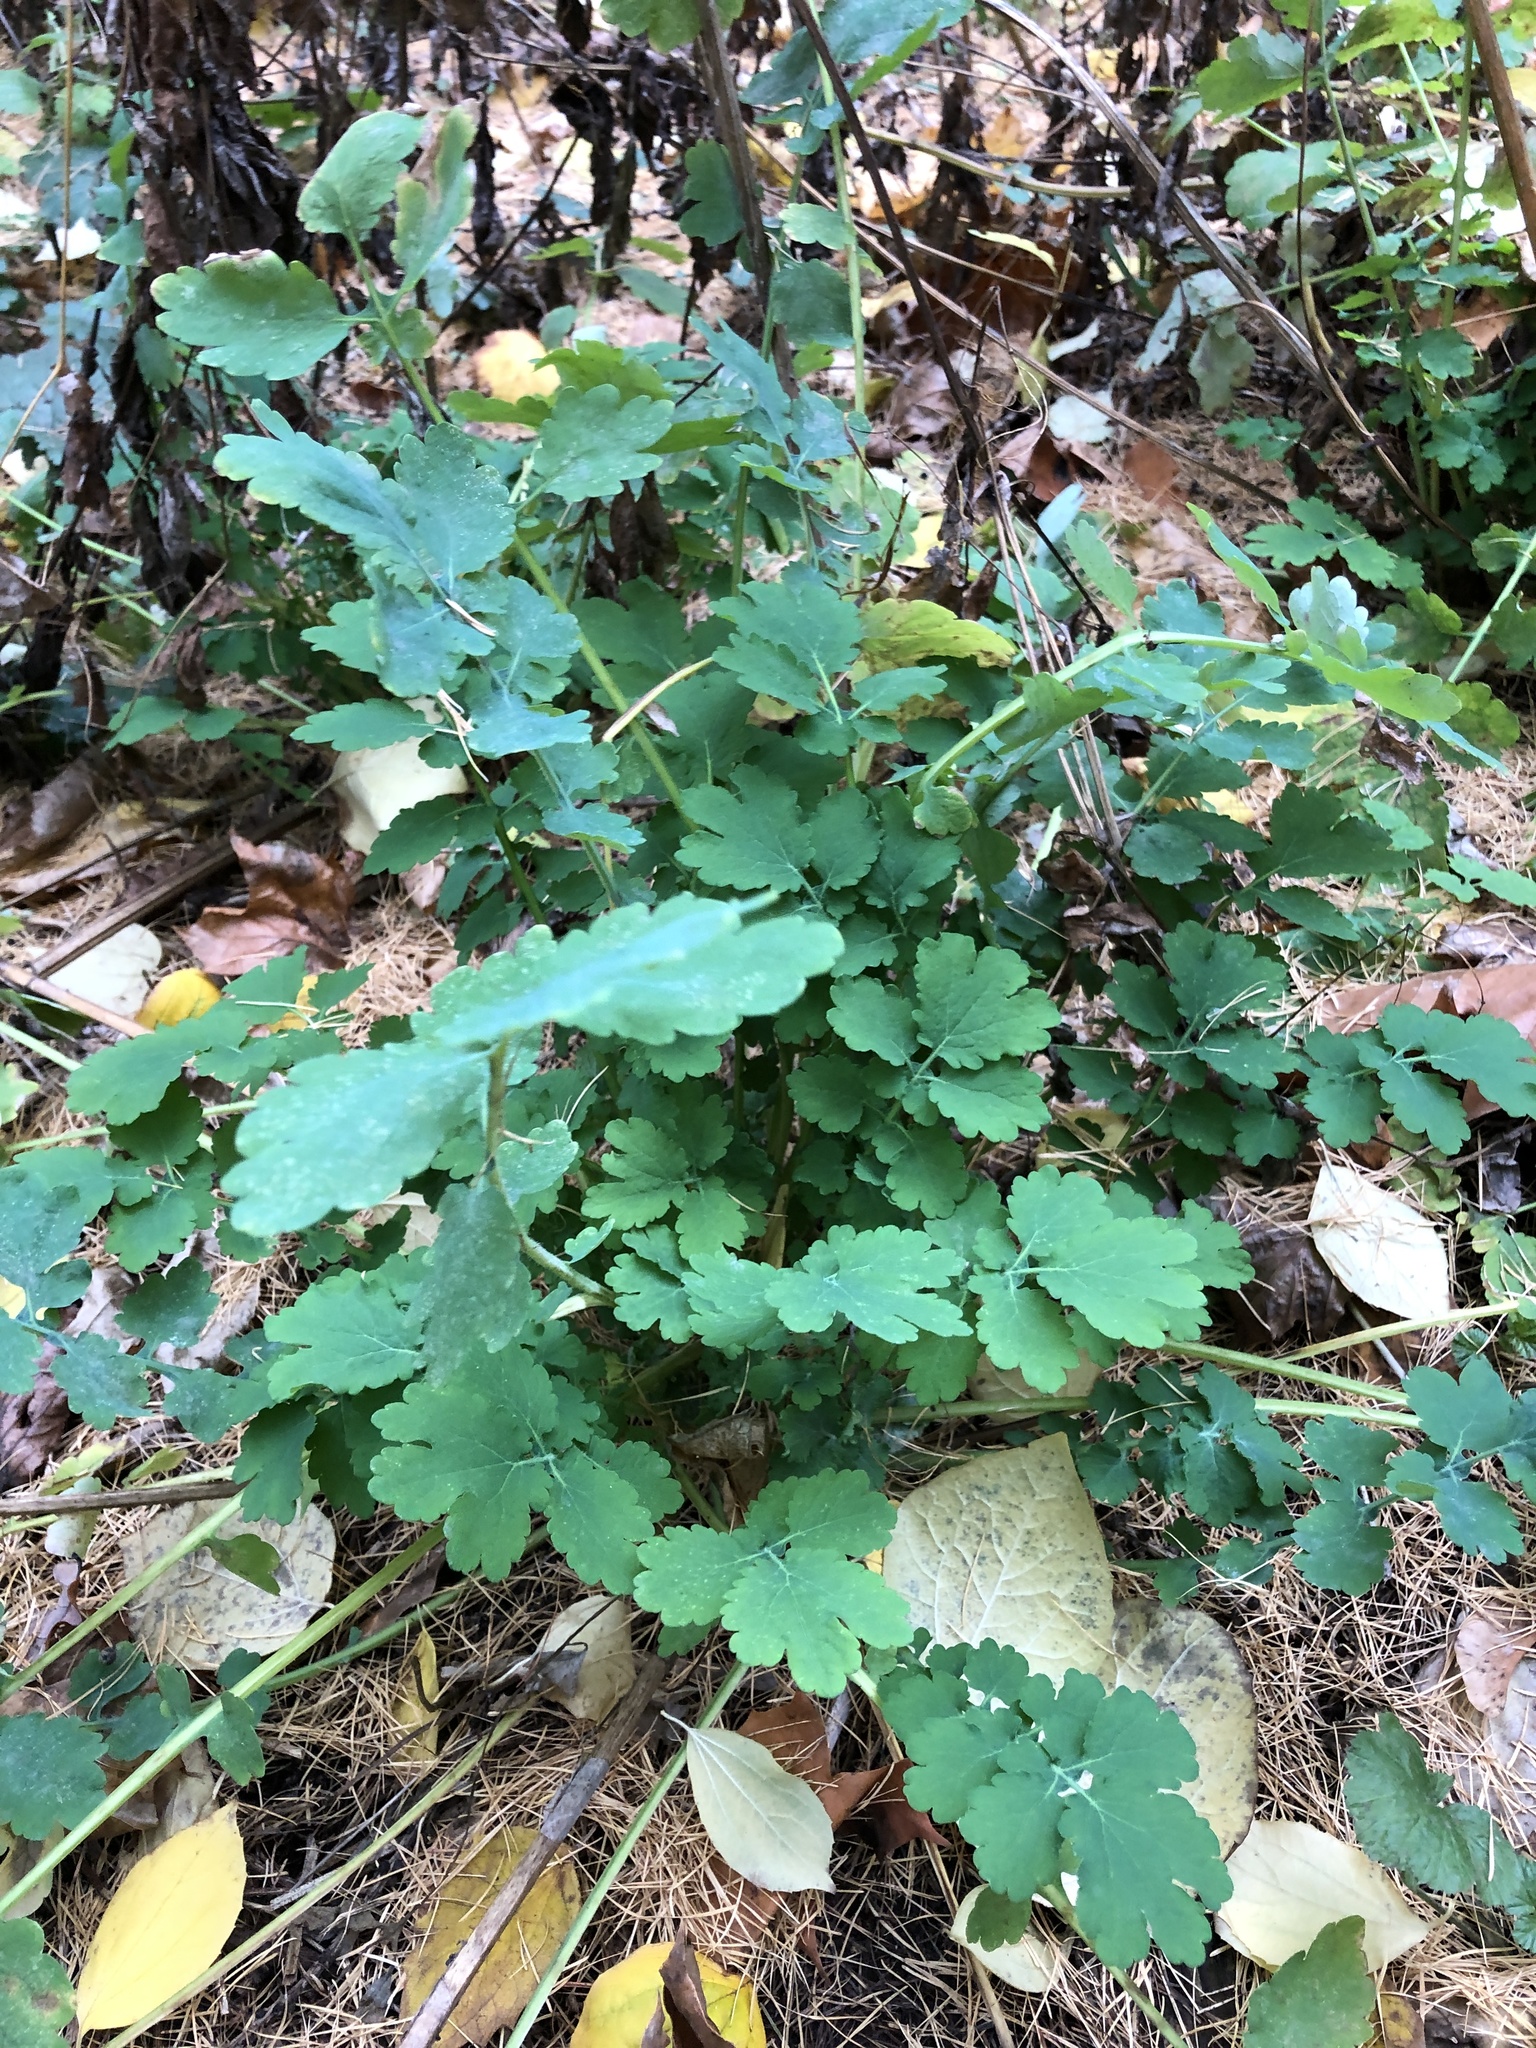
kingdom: Plantae
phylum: Tracheophyta
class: Magnoliopsida
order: Ranunculales
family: Papaveraceae
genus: Chelidonium
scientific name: Chelidonium majus
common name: Greater celandine
